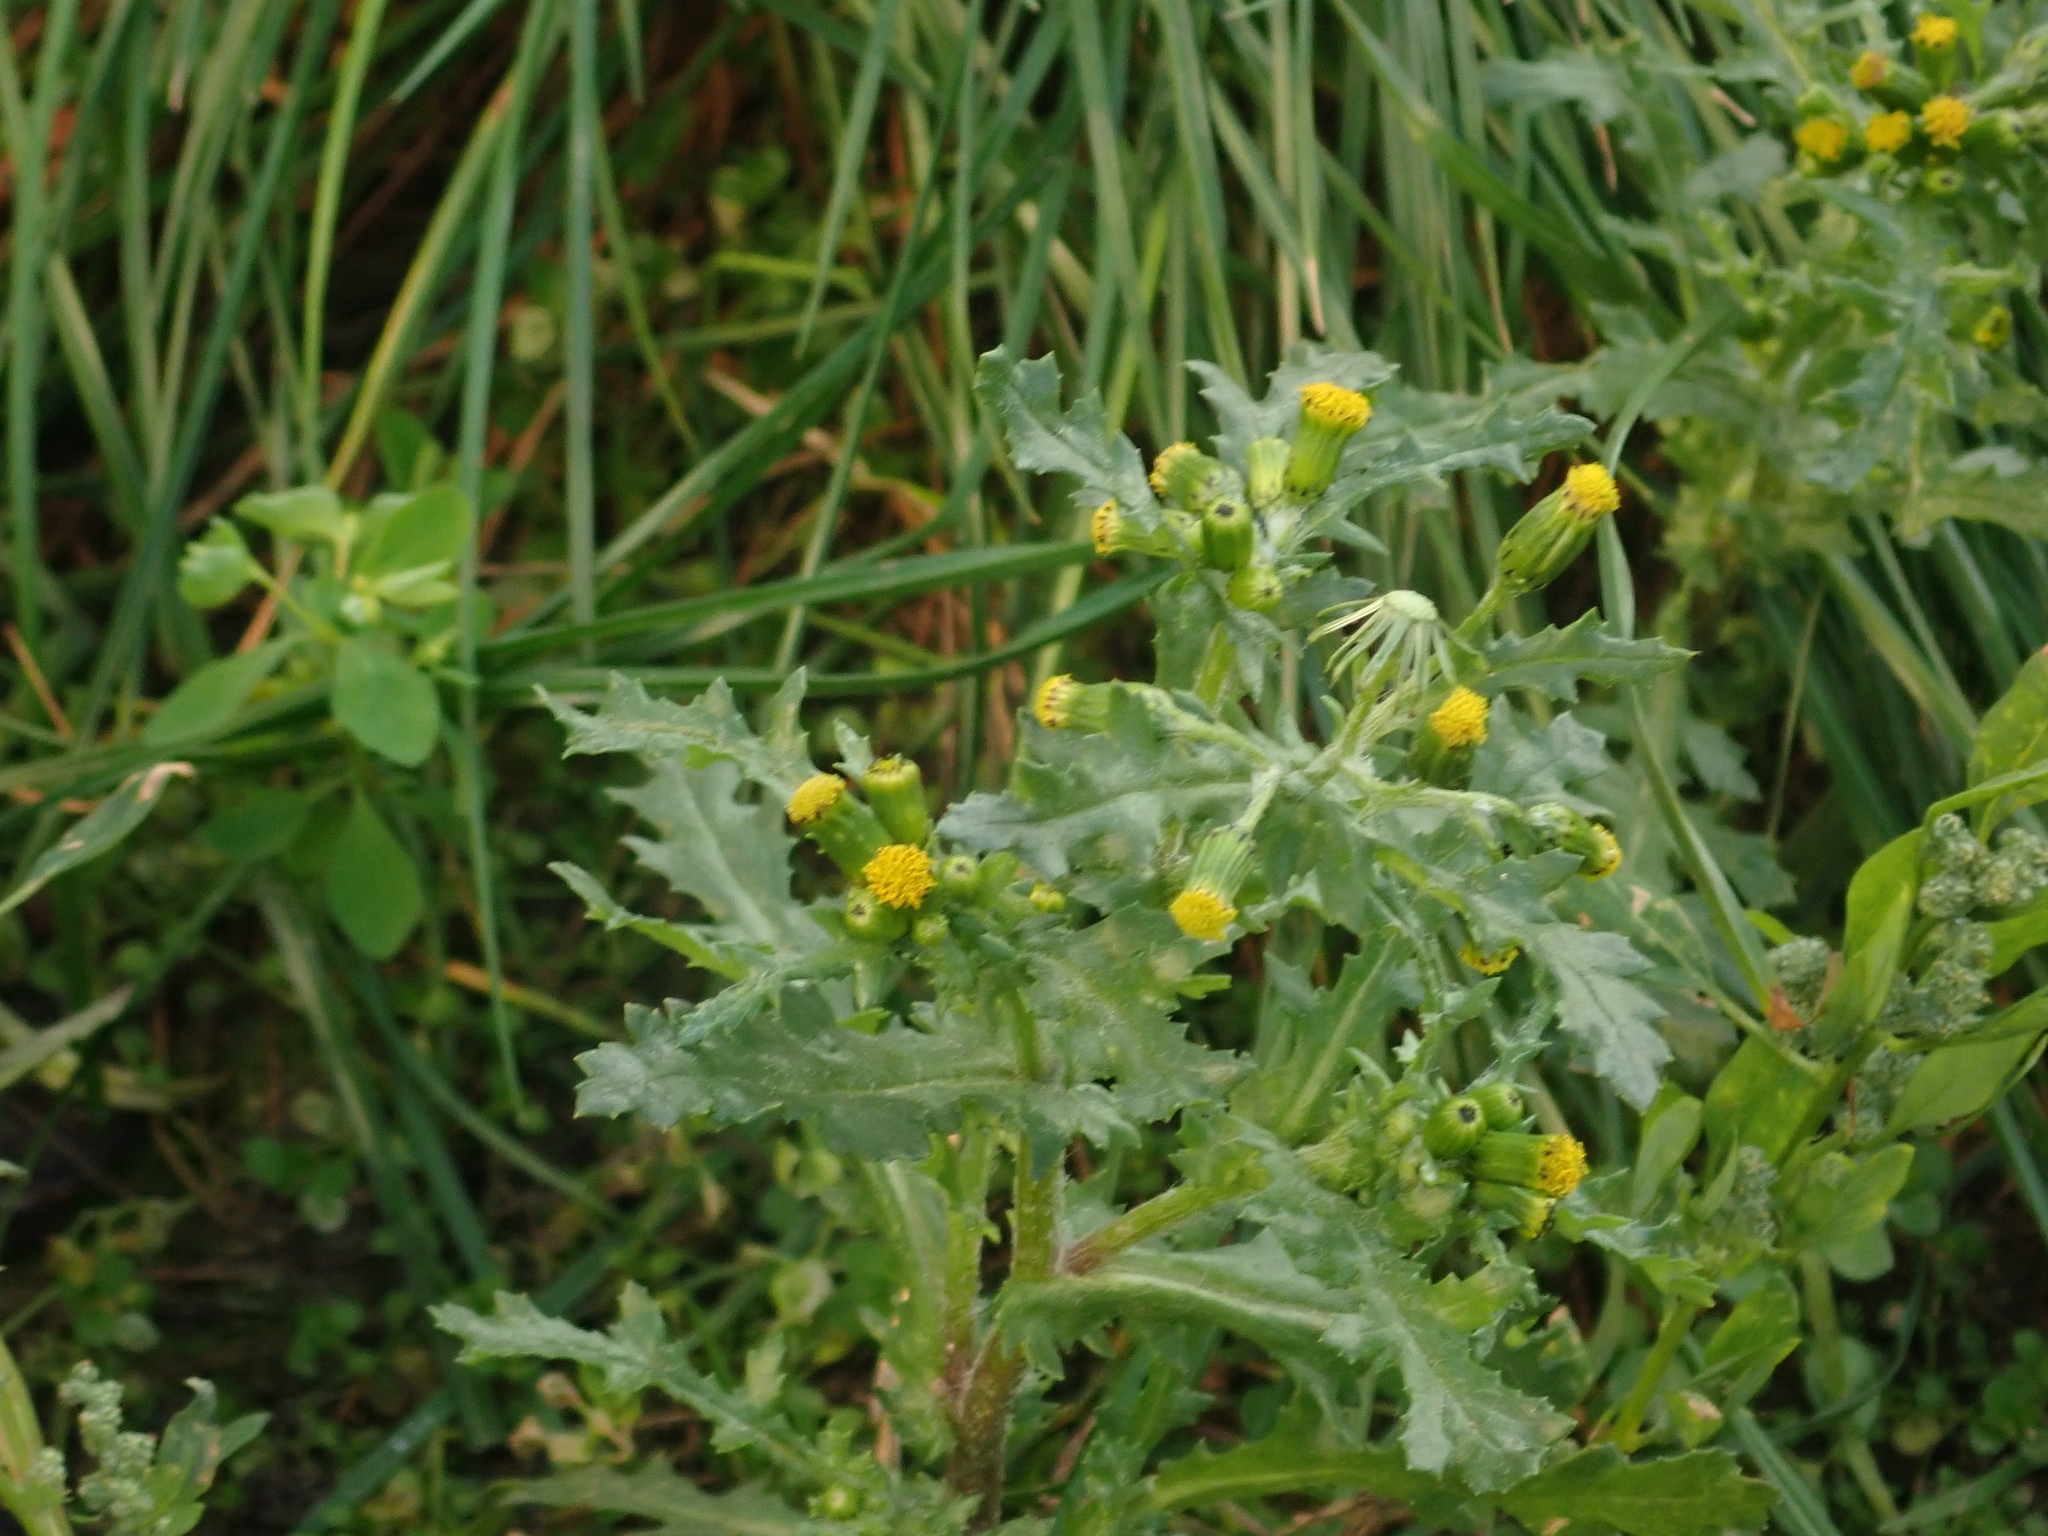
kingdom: Plantae
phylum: Tracheophyta
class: Magnoliopsida
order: Asterales
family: Asteraceae
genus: Senecio
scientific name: Senecio vulgaris
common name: Old-man-in-the-spring
